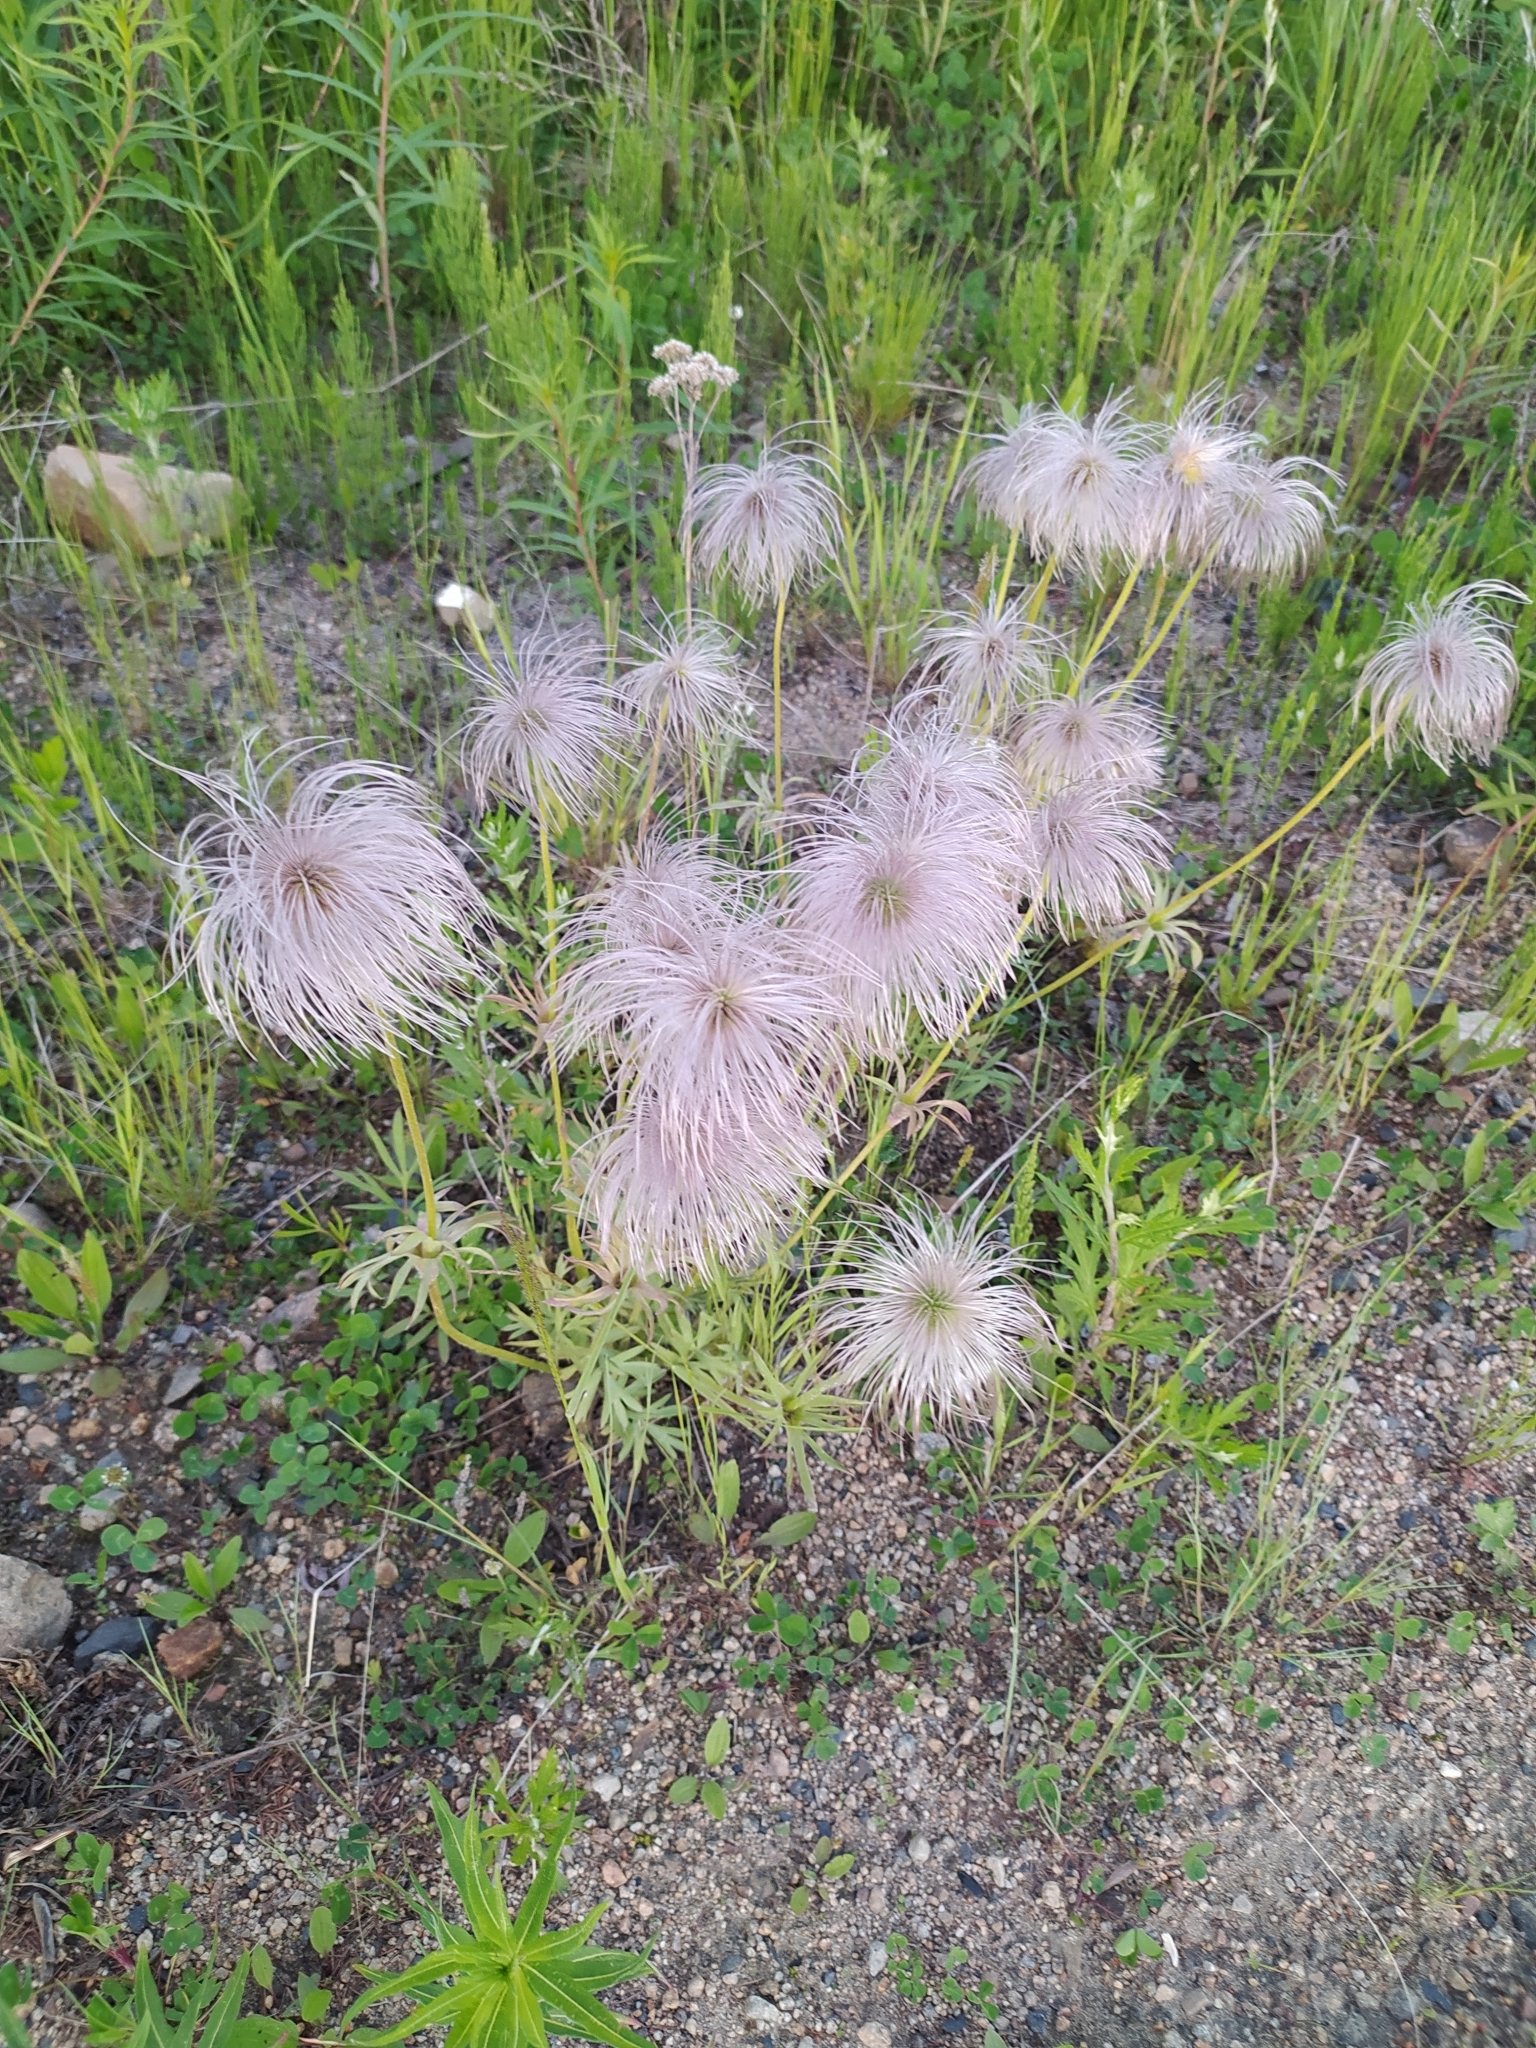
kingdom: Plantae
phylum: Tracheophyta
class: Magnoliopsida
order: Ranunculales
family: Ranunculaceae
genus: Pulsatilla
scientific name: Pulsatilla dahurica
